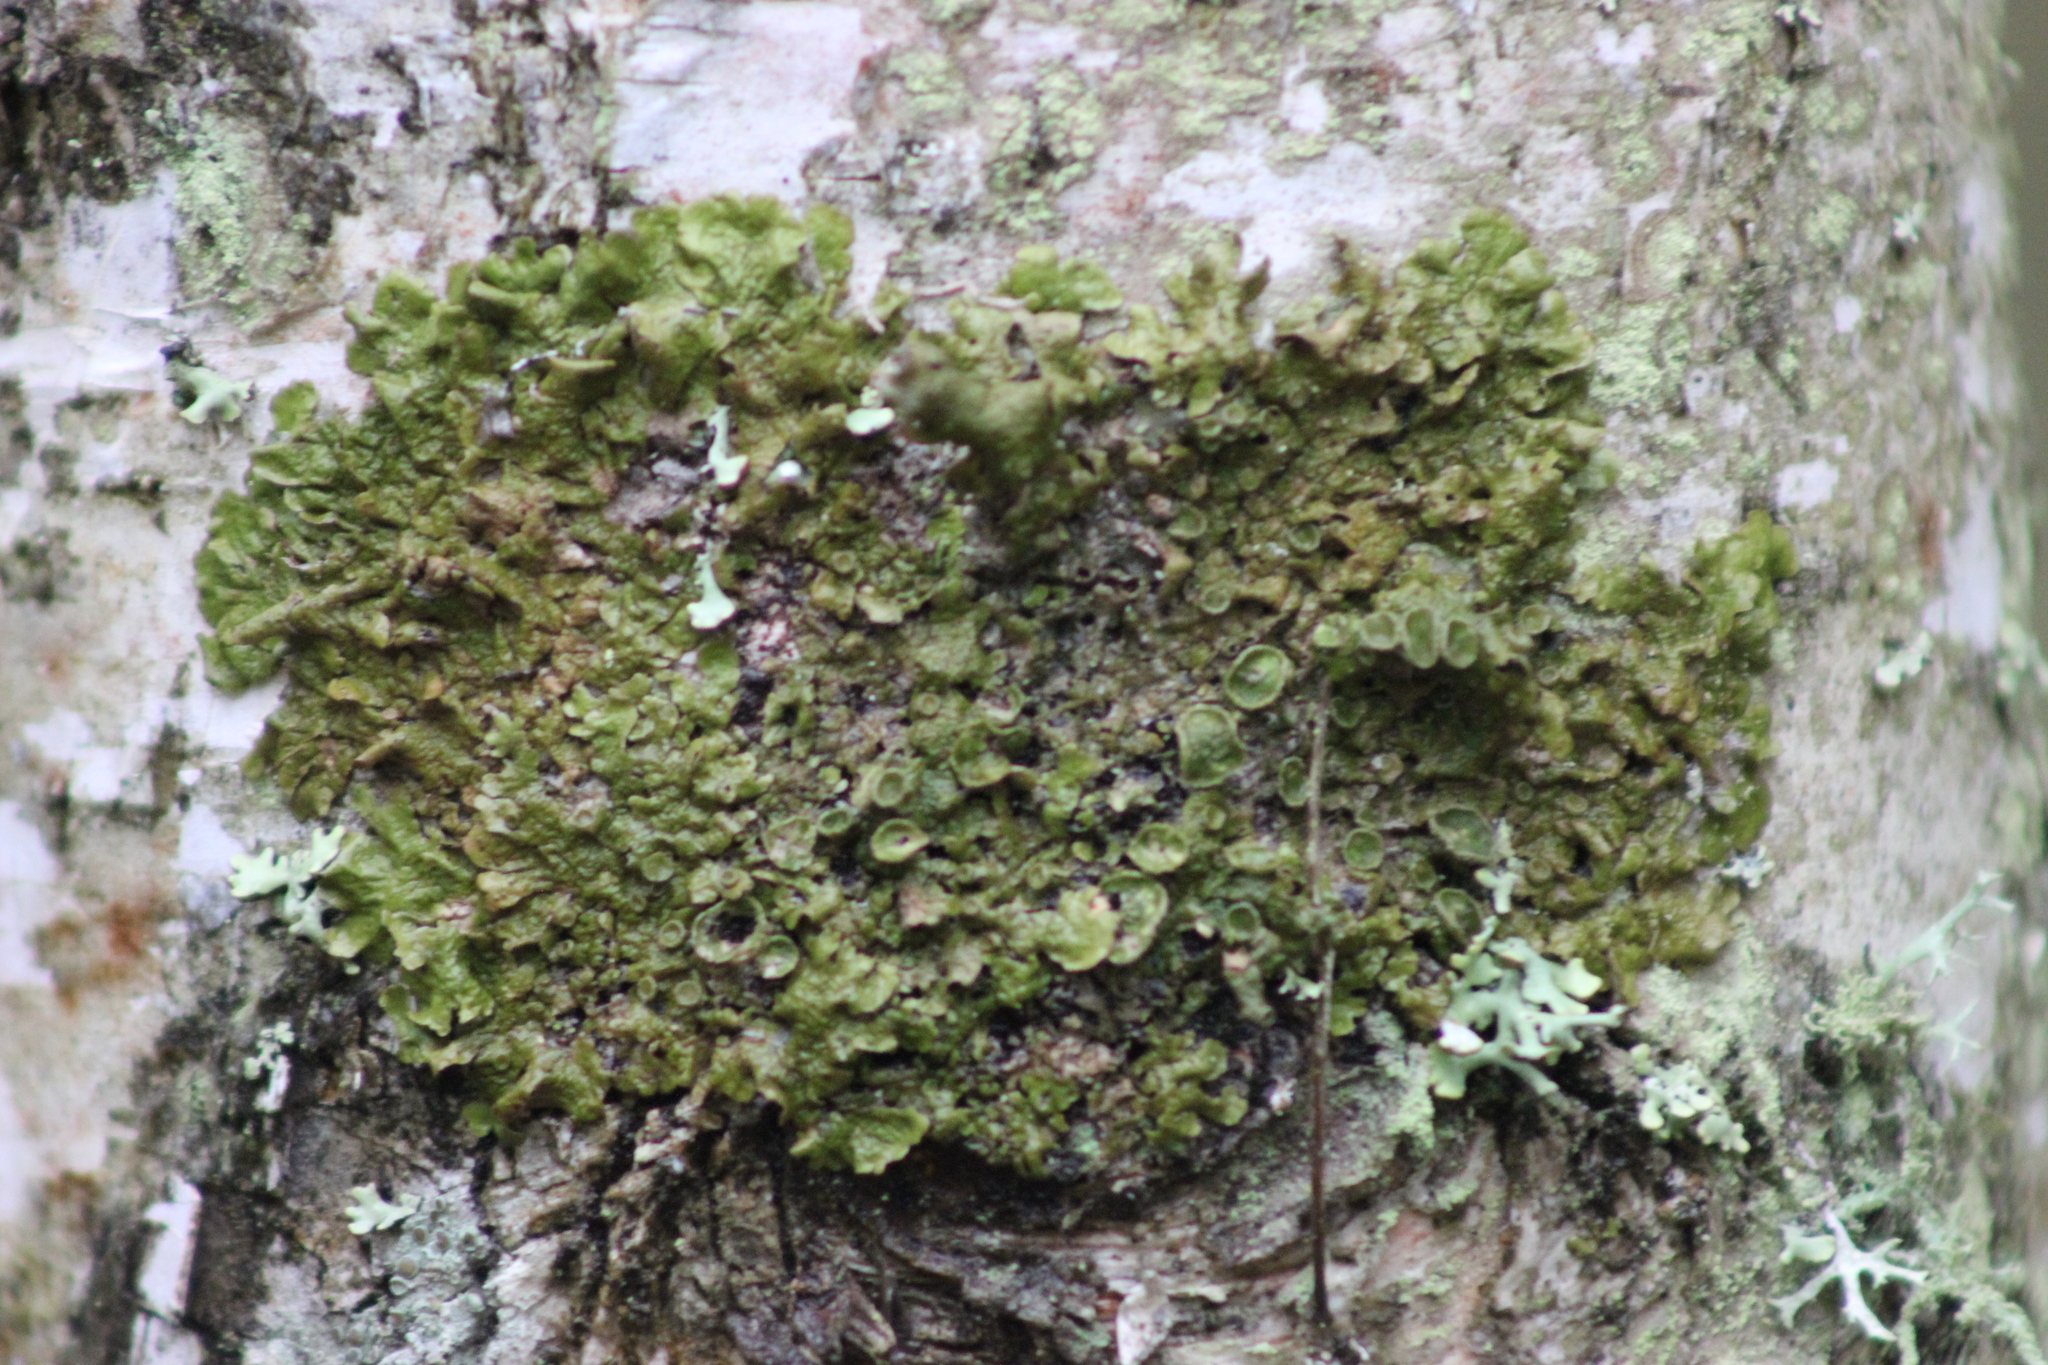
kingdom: Fungi
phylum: Ascomycota
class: Lecanoromycetes
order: Lecanorales
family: Parmeliaceae
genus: Melanohalea
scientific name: Melanohalea olivacea
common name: Spotted camouflage lichen
